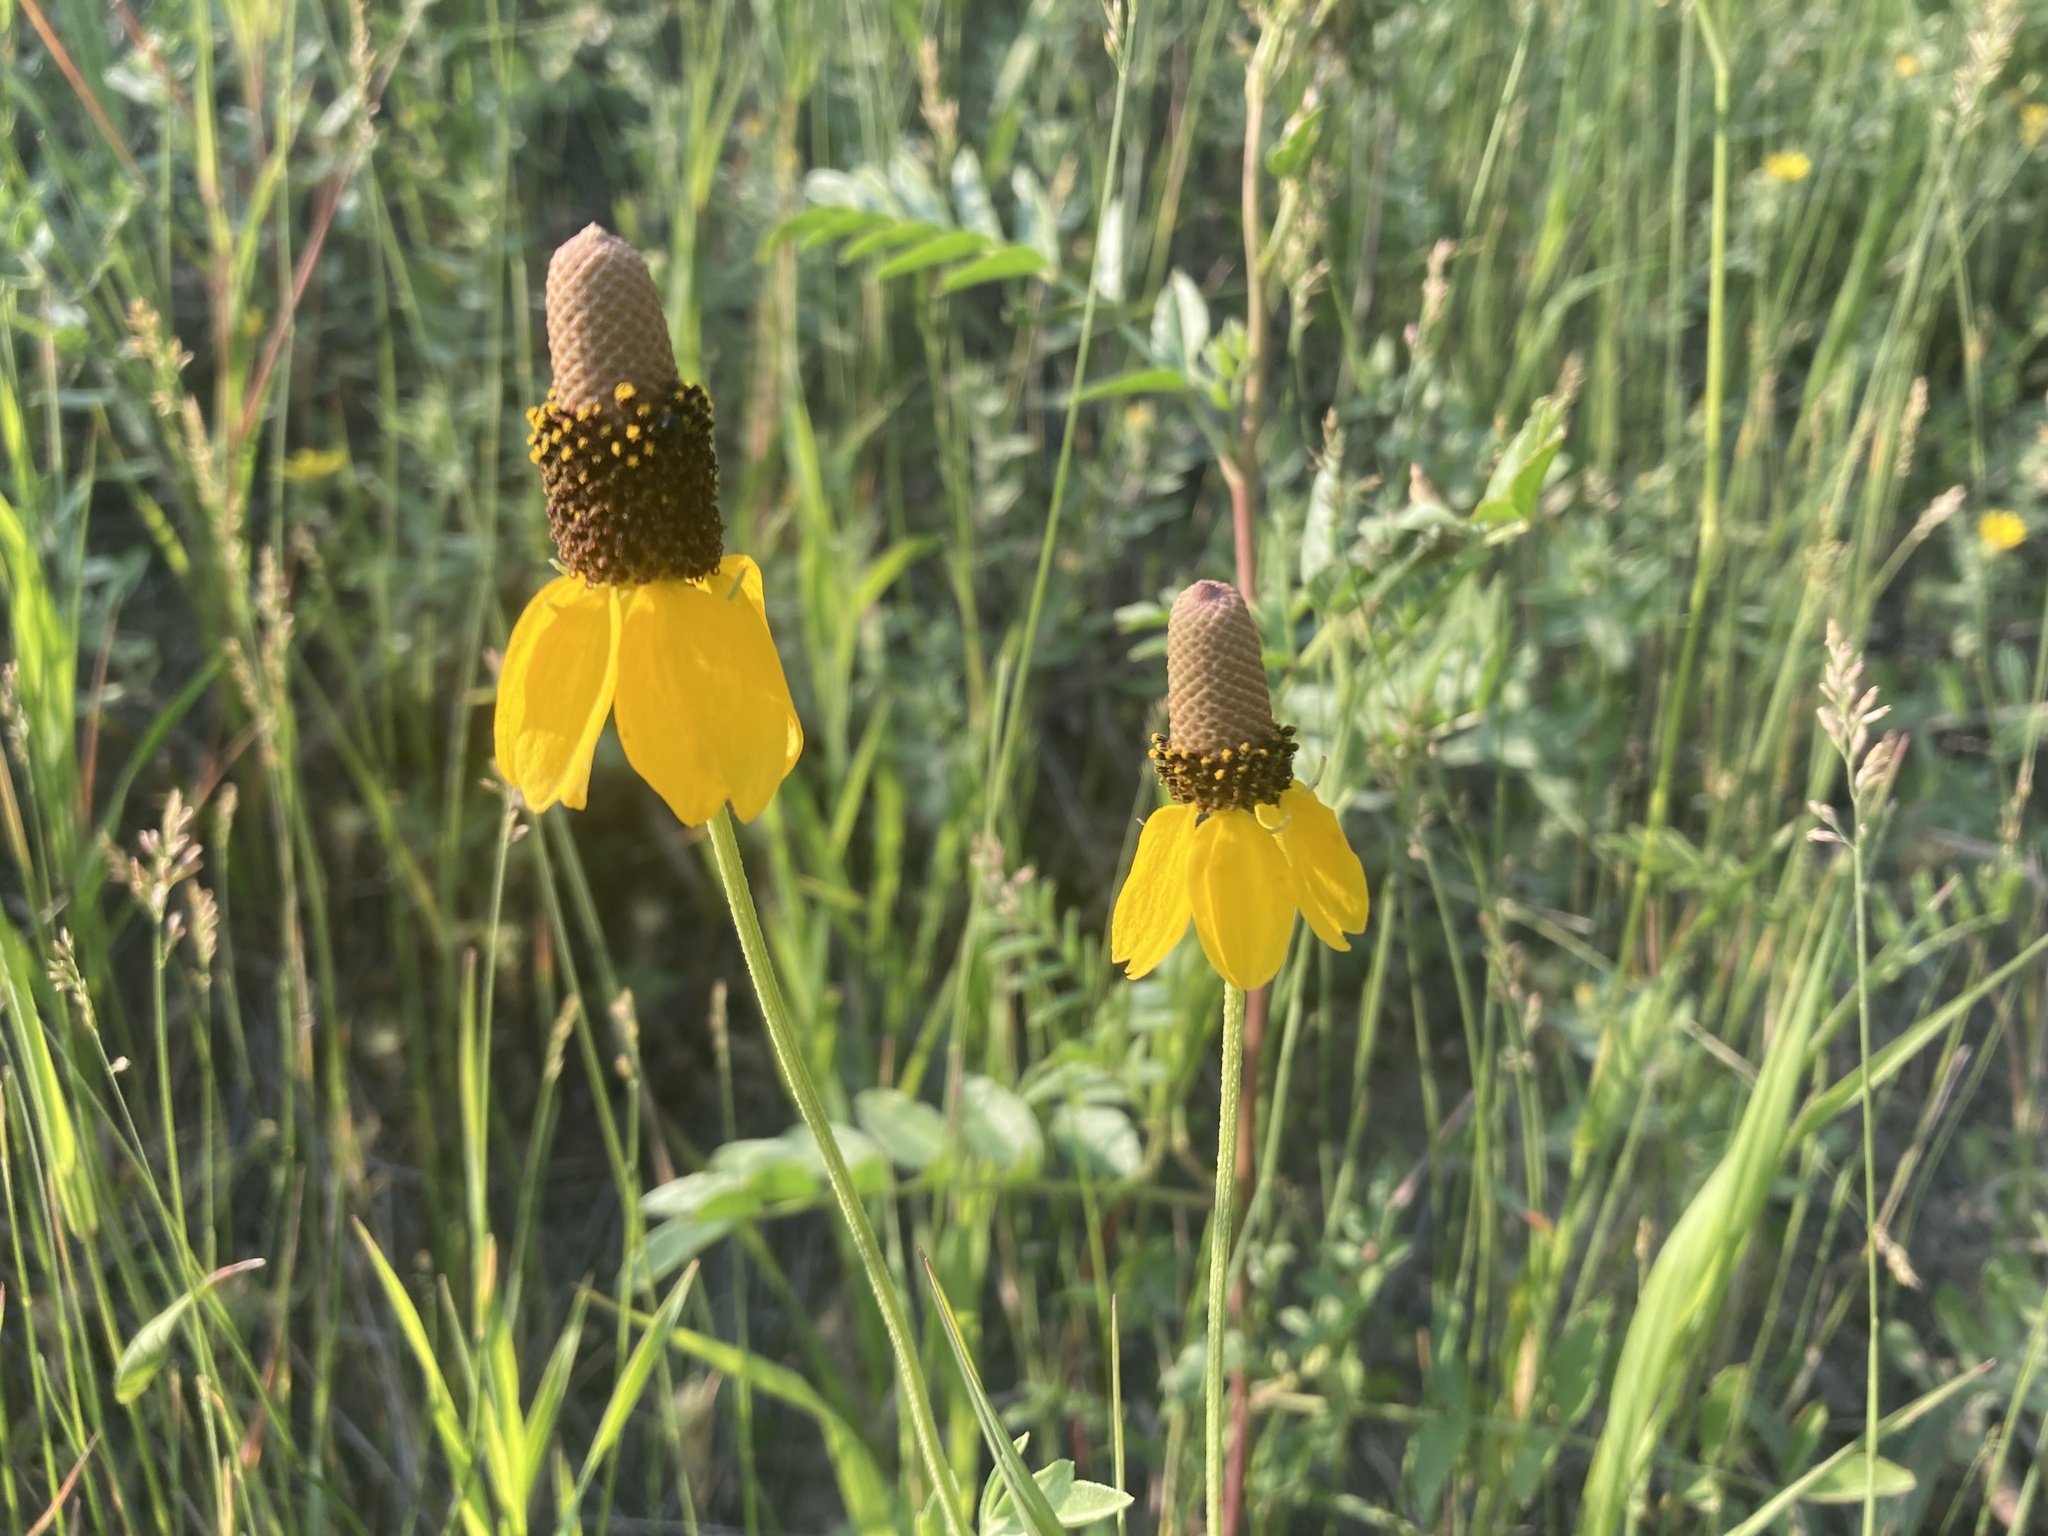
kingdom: Plantae
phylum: Tracheophyta
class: Magnoliopsida
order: Asterales
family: Asteraceae
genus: Ratibida
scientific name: Ratibida columnifera
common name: Prairie coneflower
